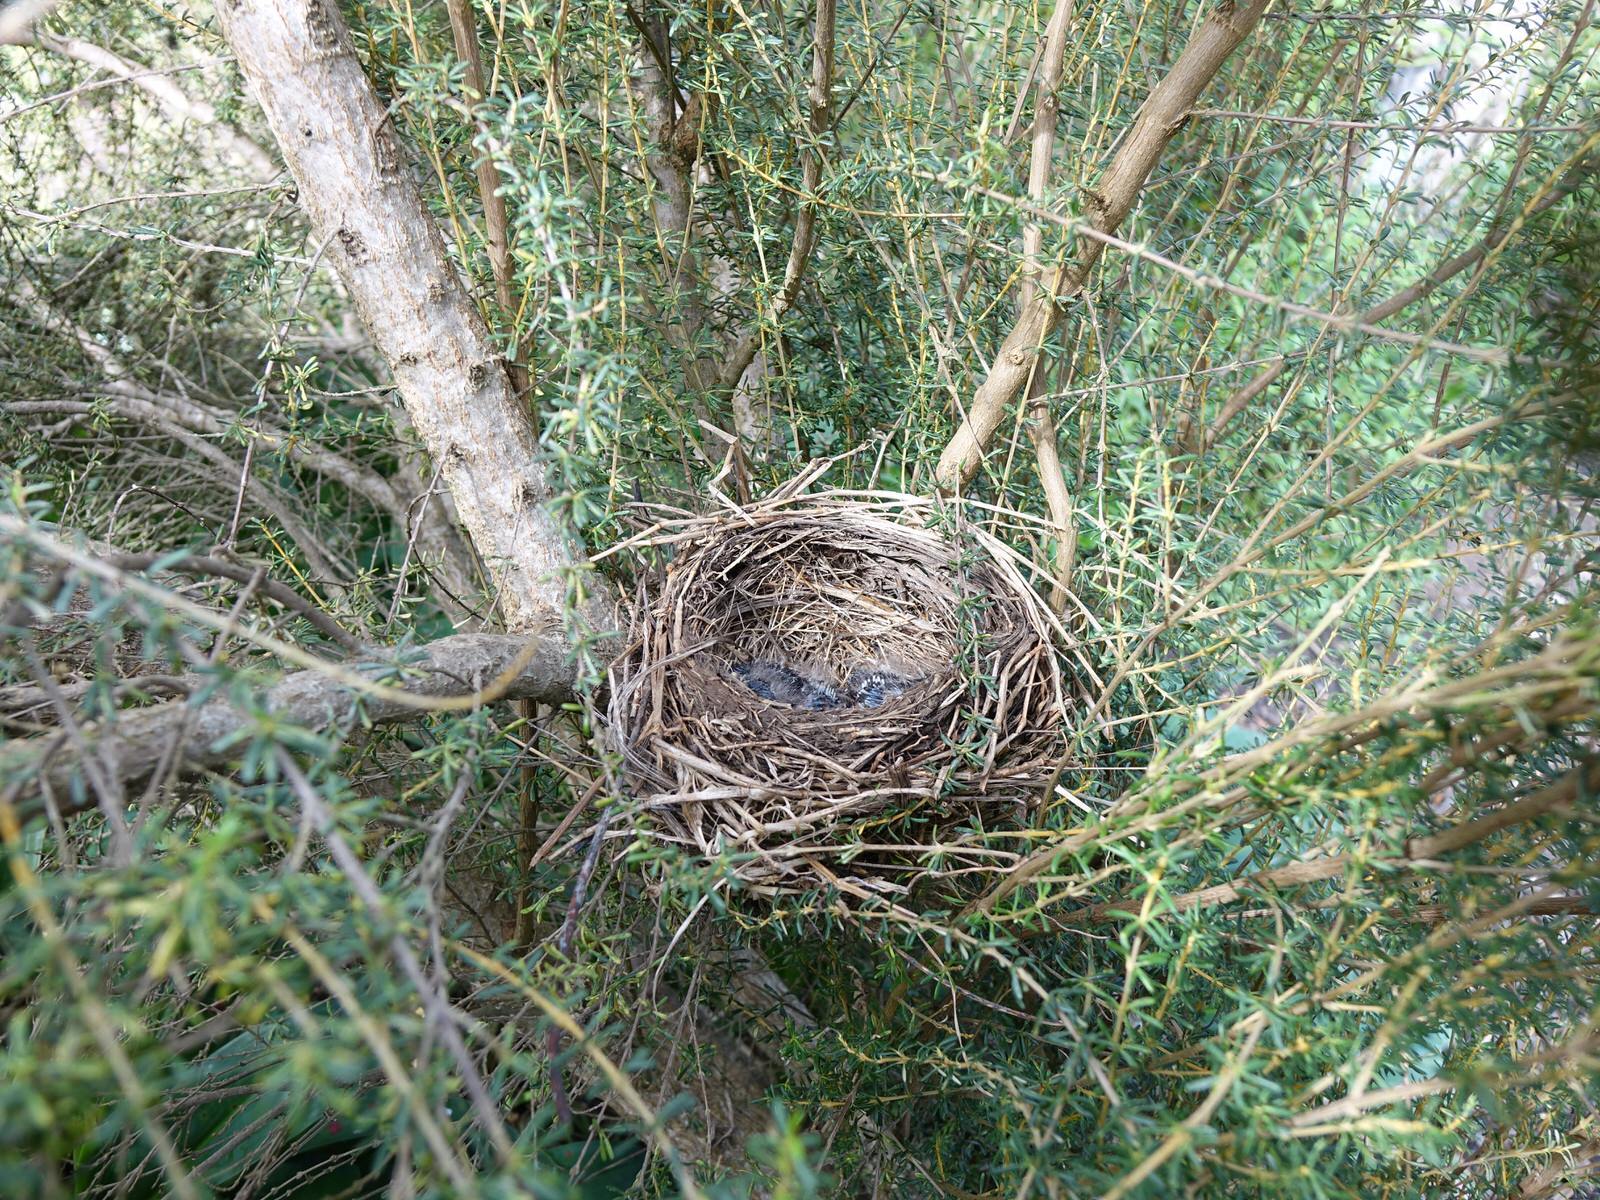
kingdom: Animalia
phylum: Chordata
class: Aves
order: Passeriformes
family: Turdidae
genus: Turdus
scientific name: Turdus merula
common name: Common blackbird
